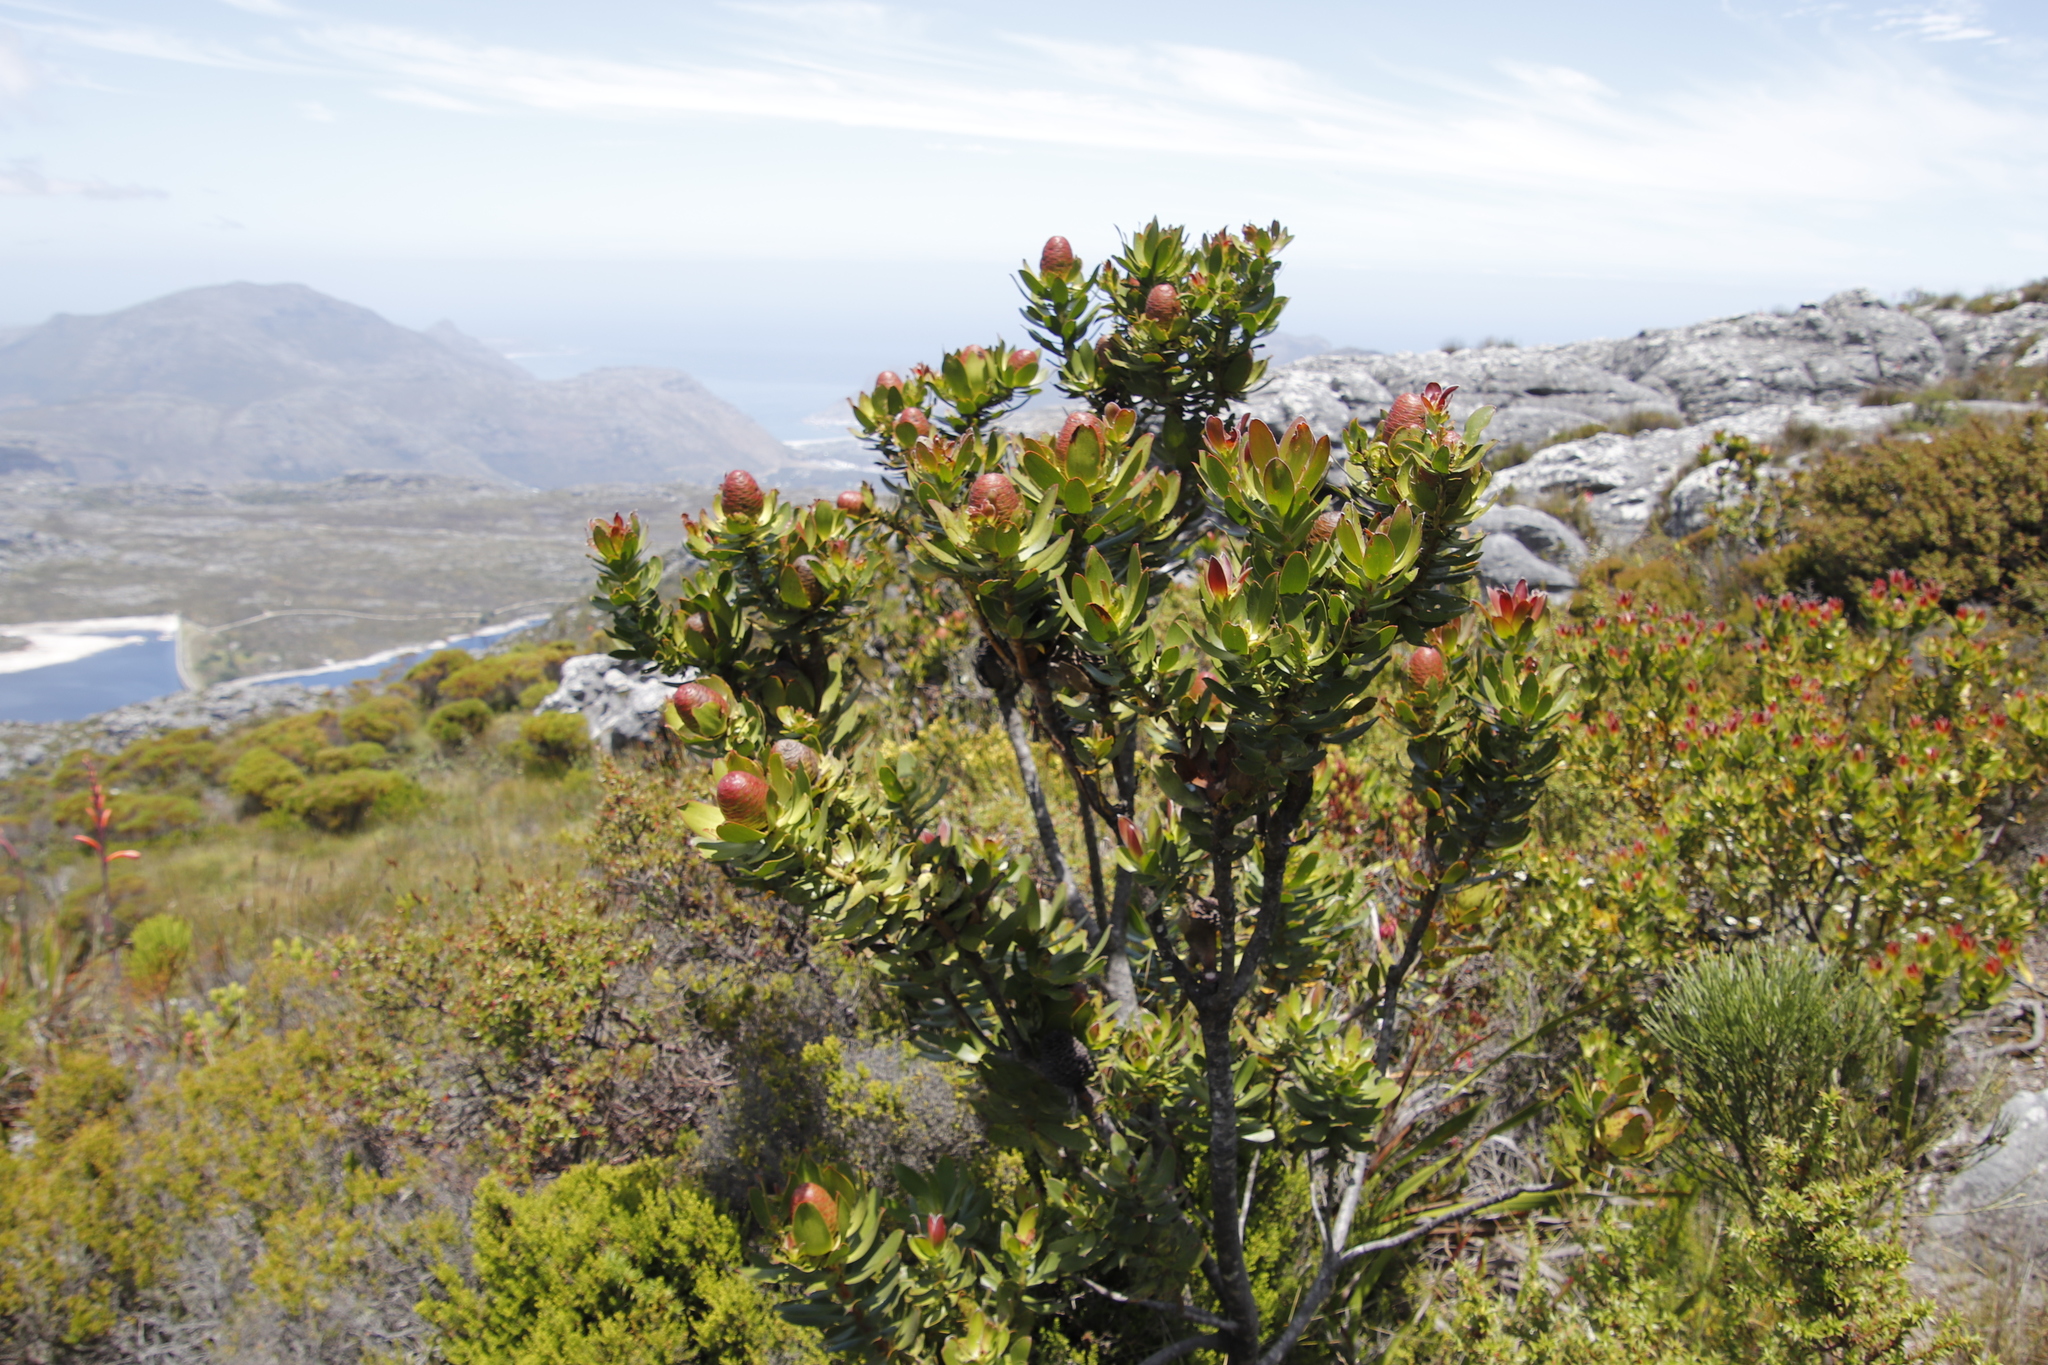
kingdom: Plantae
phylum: Tracheophyta
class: Magnoliopsida
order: Proteales
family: Proteaceae
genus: Leucadendron
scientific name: Leucadendron strobilinum
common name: Mountain rose
